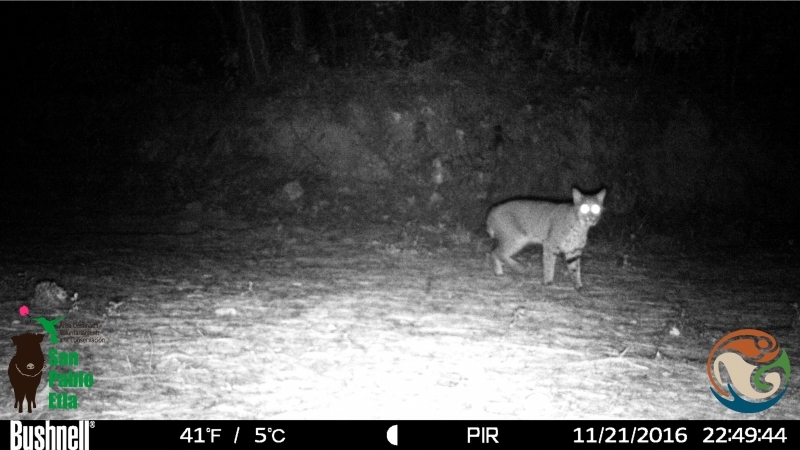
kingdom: Animalia
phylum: Chordata
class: Mammalia
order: Carnivora
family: Felidae
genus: Lynx
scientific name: Lynx rufus
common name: Bobcat
